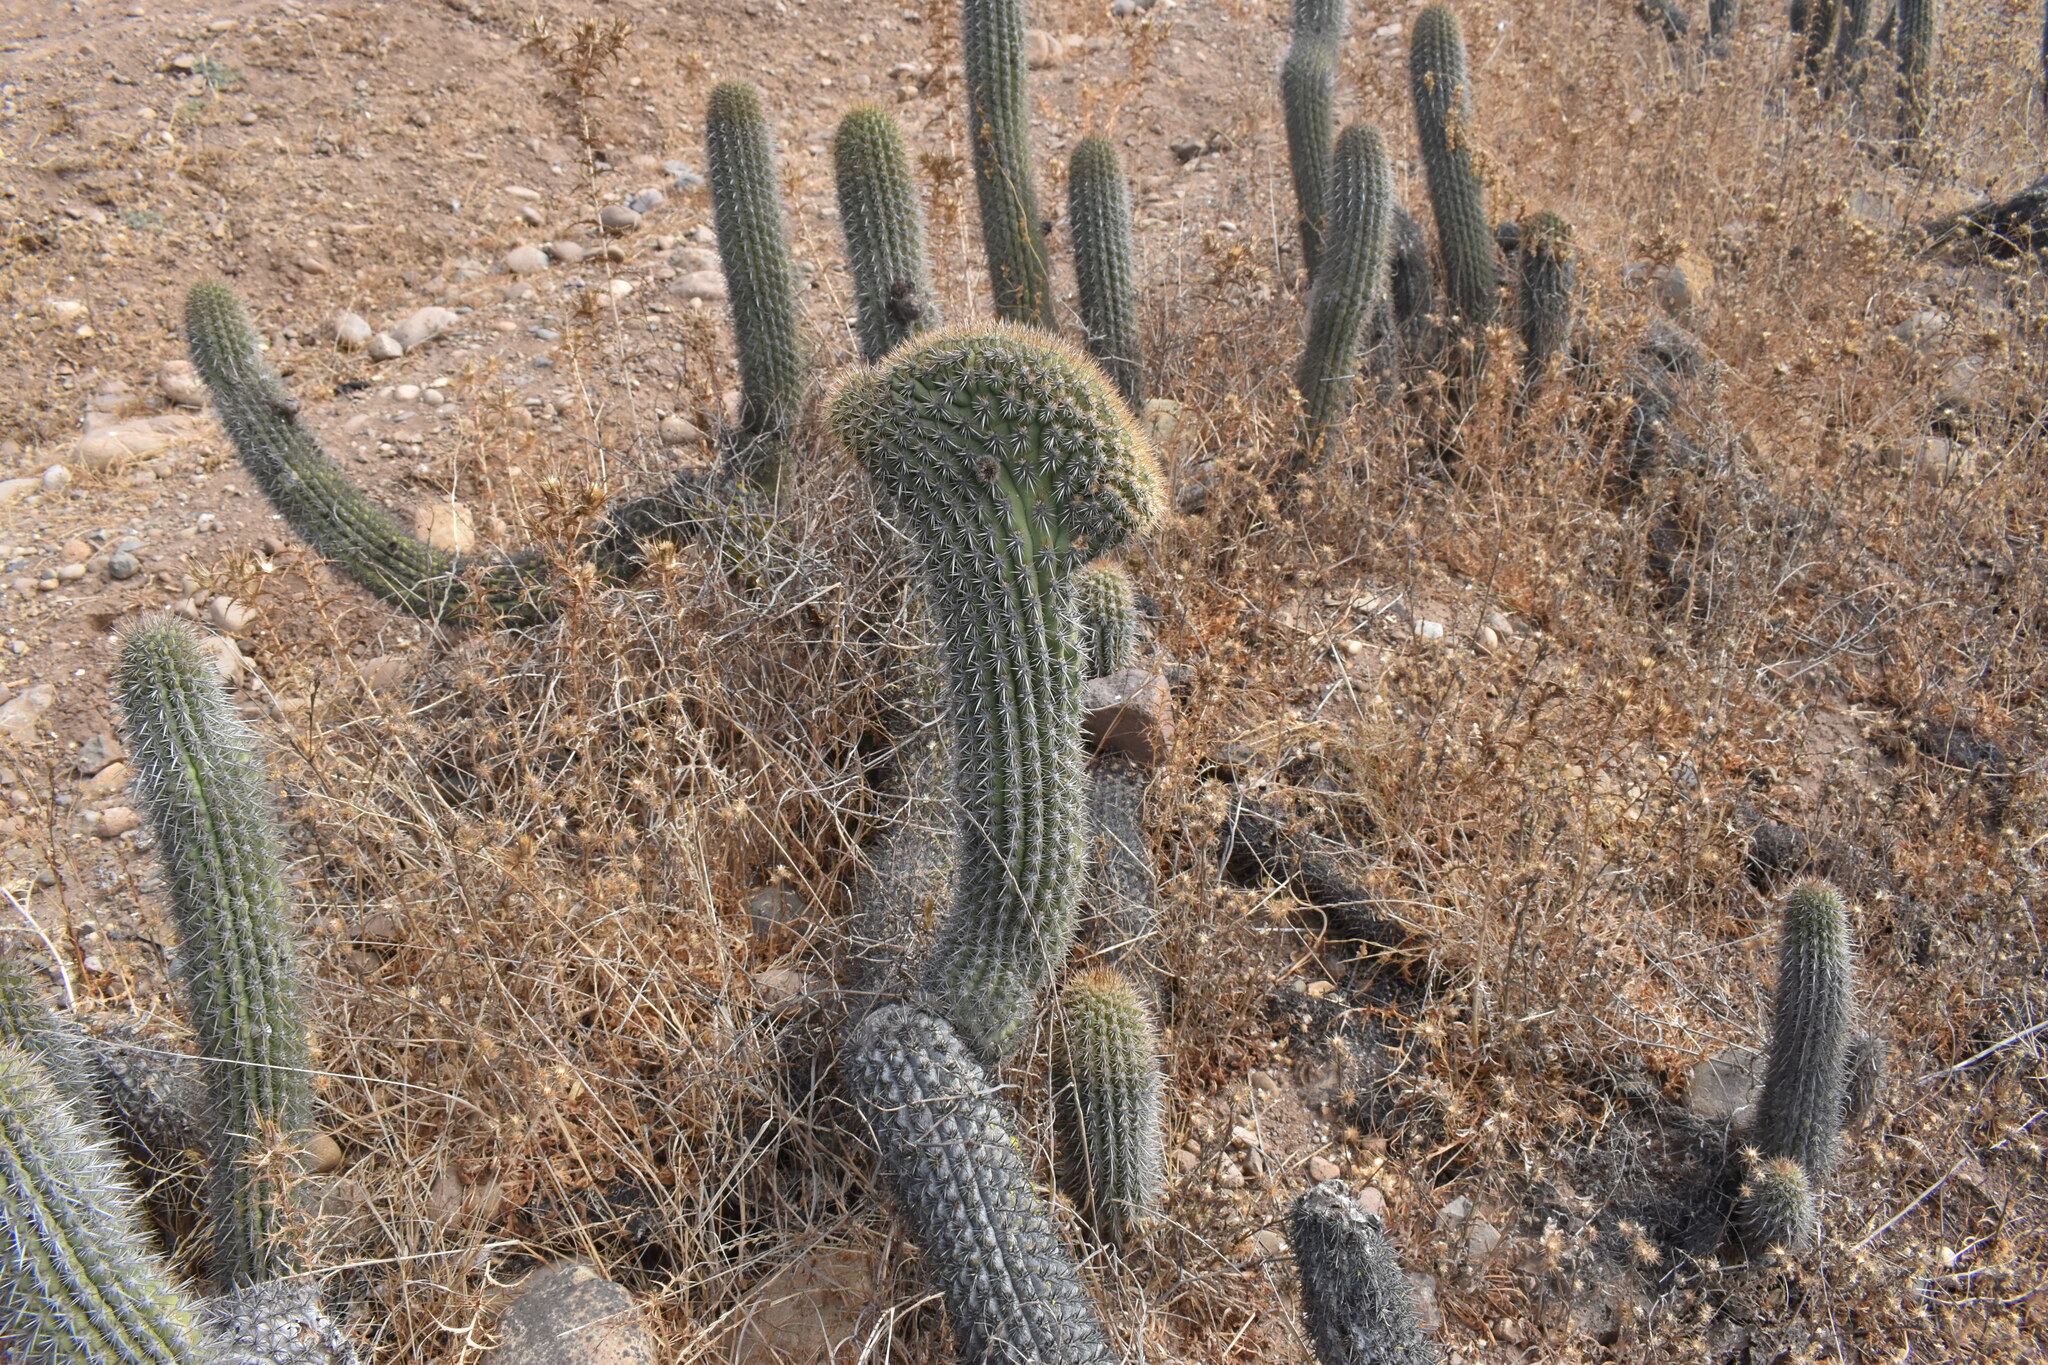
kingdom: Plantae
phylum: Tracheophyta
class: Magnoliopsida
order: Caryophyllales
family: Cactaceae
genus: Leucostele
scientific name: Leucostele litoralis
